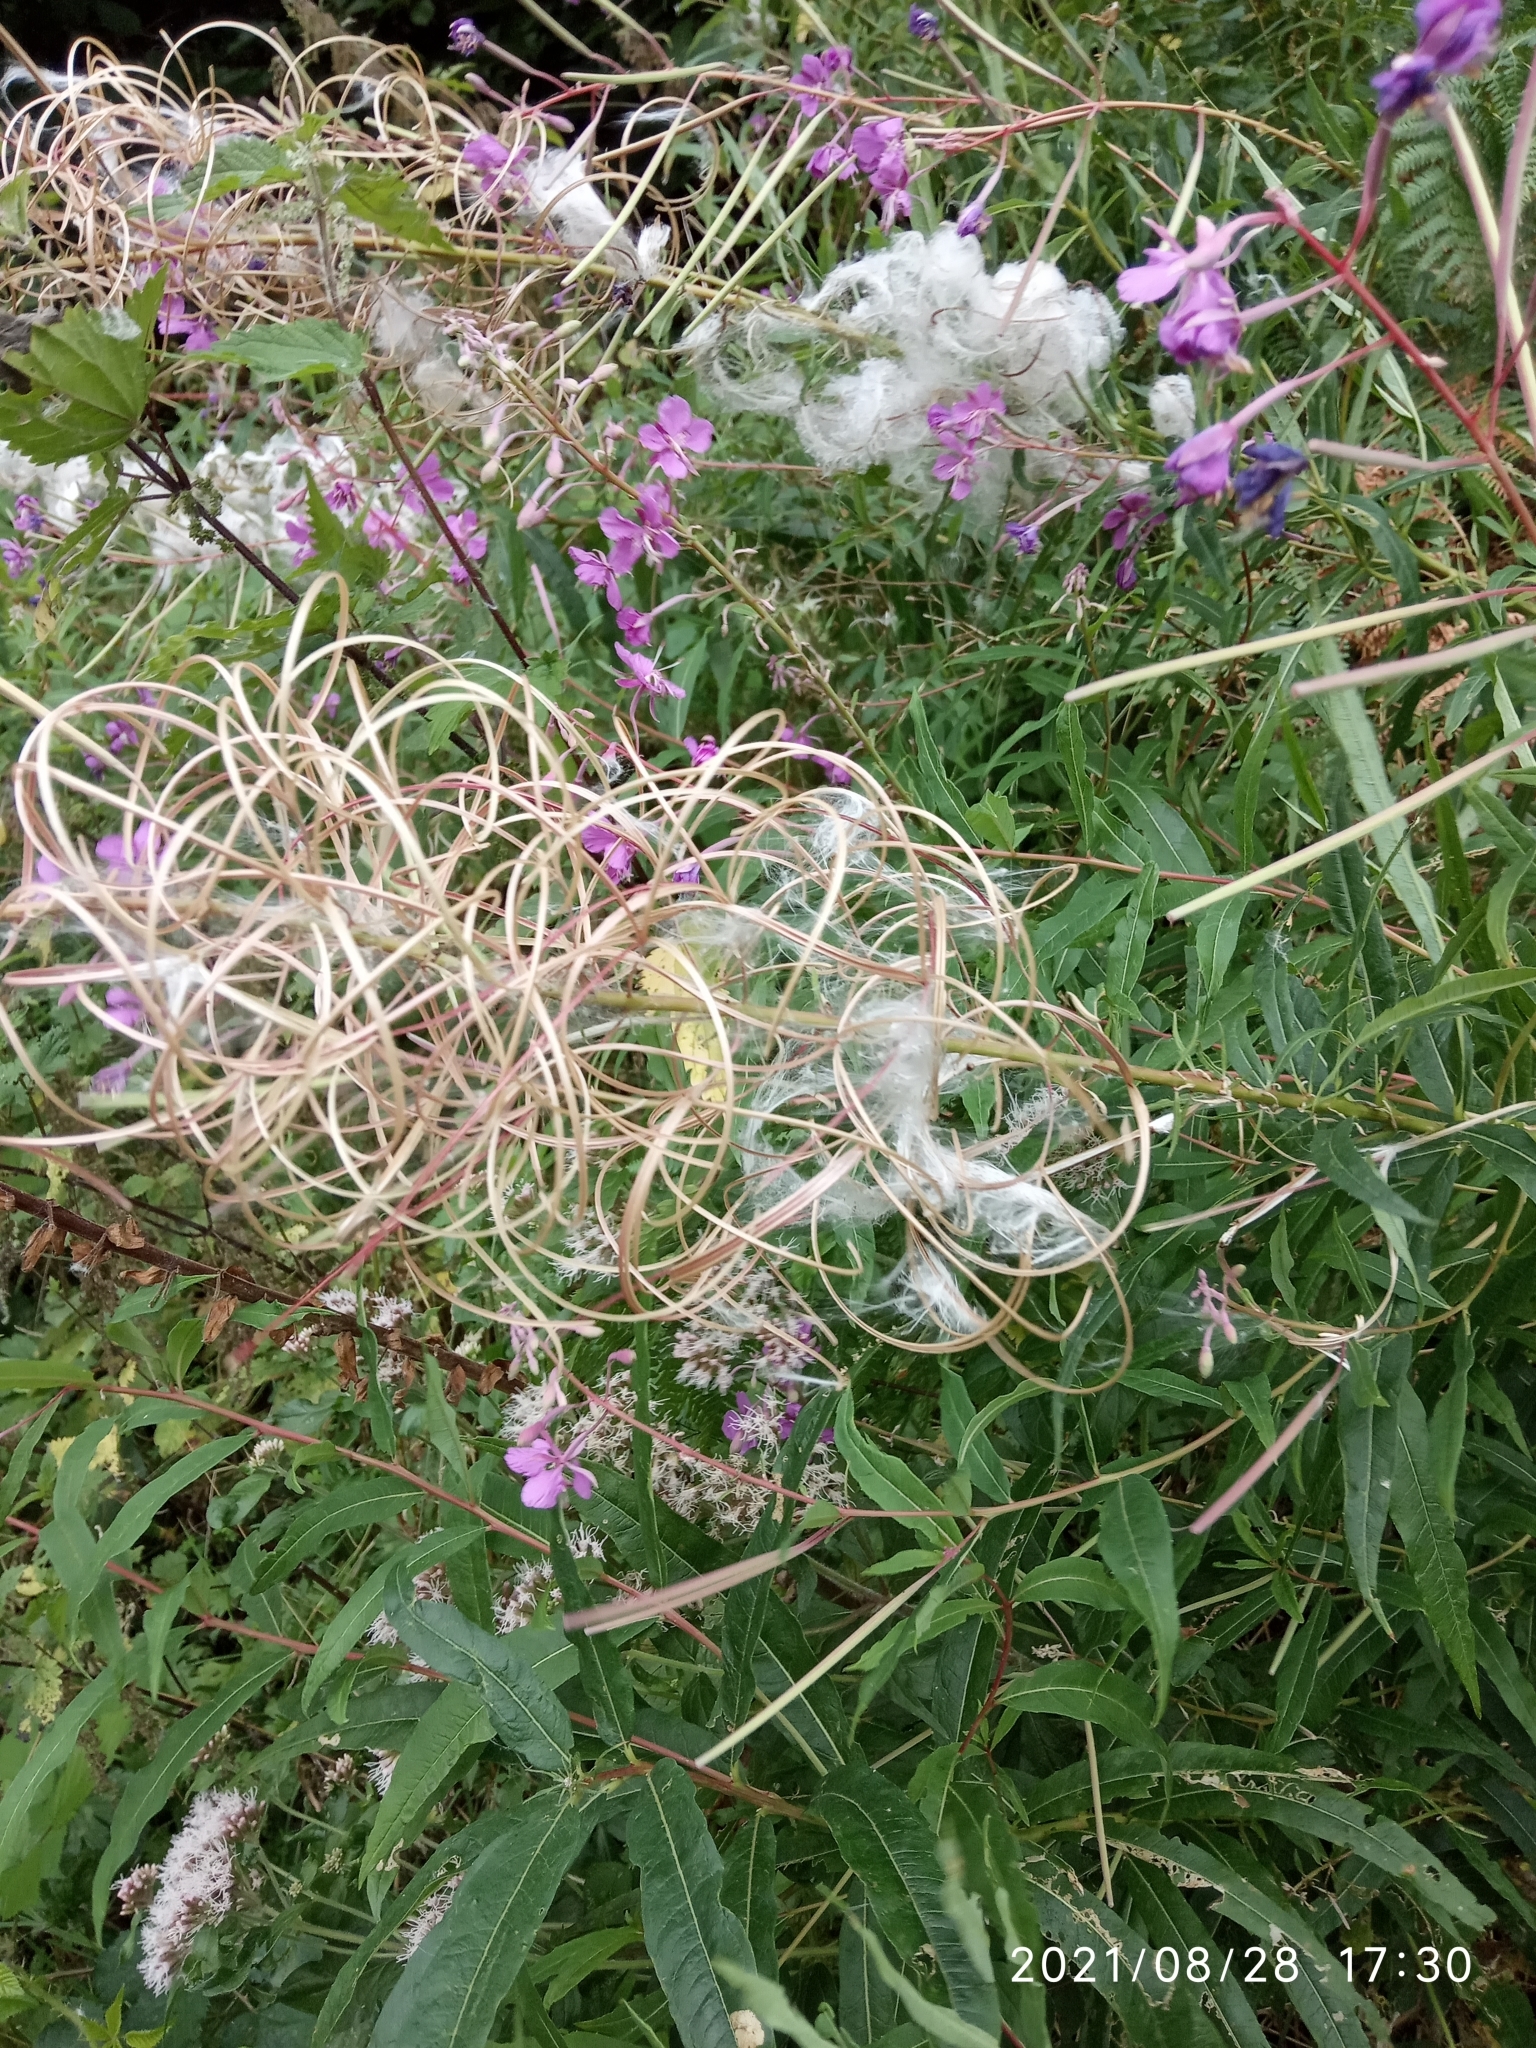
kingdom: Plantae
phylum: Tracheophyta
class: Magnoliopsida
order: Myrtales
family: Onagraceae
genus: Chamaenerion
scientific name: Chamaenerion angustifolium
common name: Fireweed
